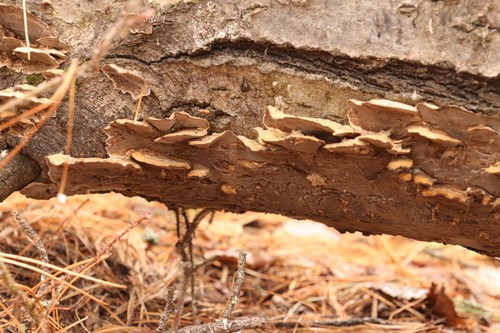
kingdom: Fungi
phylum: Basidiomycota
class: Agaricomycetes
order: Polyporales
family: Phanerochaetaceae
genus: Bjerkandera
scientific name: Bjerkandera adusta
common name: Smoky bracket
